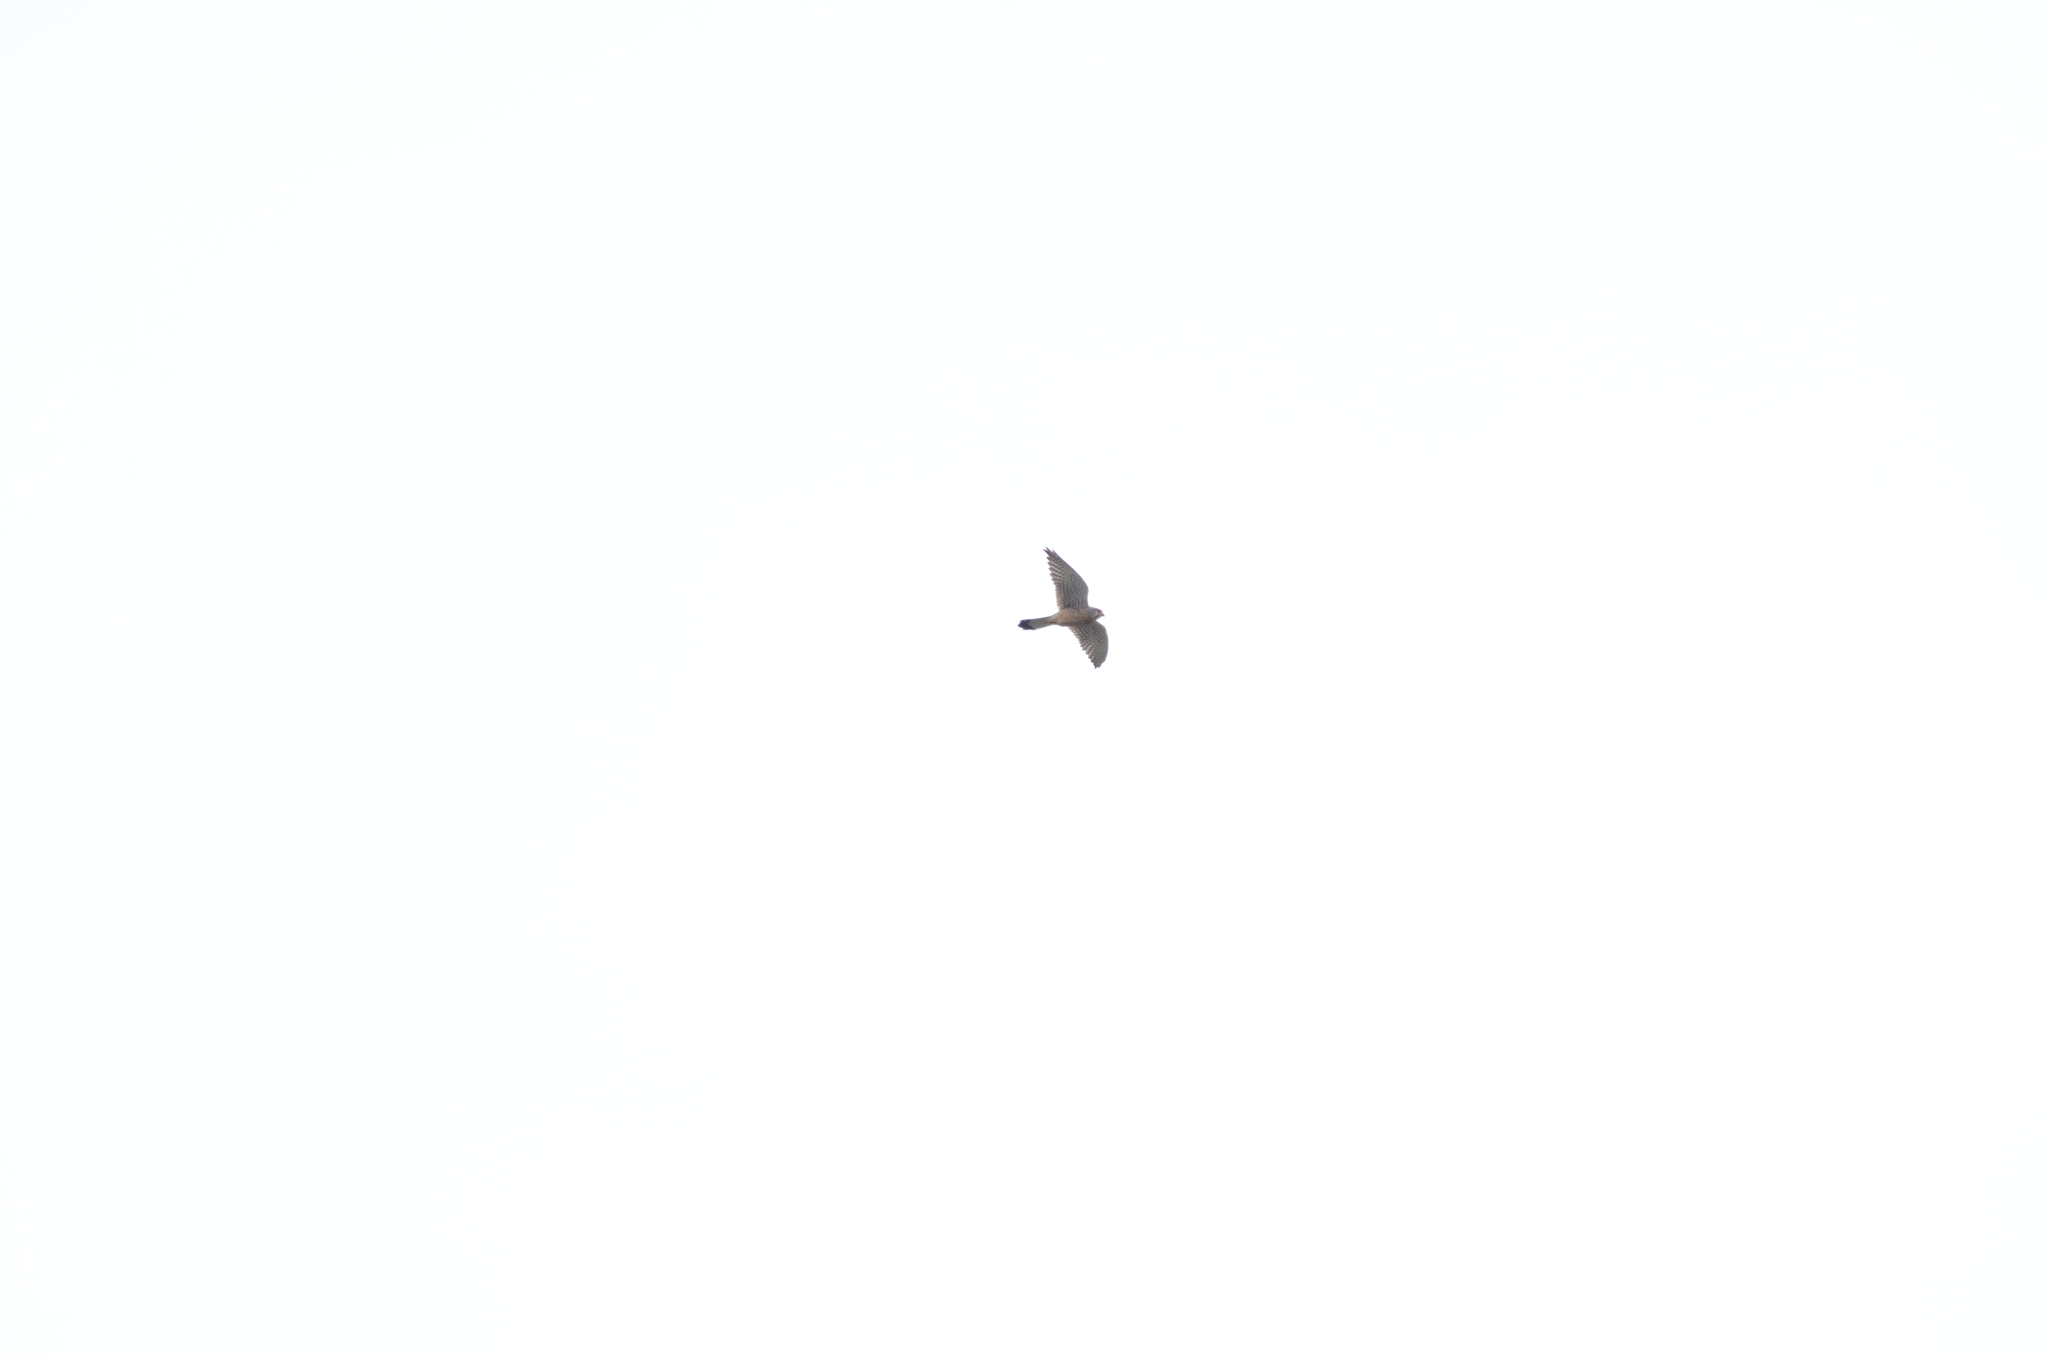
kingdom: Animalia
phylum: Chordata
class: Aves
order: Falconiformes
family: Falconidae
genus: Falco
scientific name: Falco tinnunculus
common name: Common kestrel
